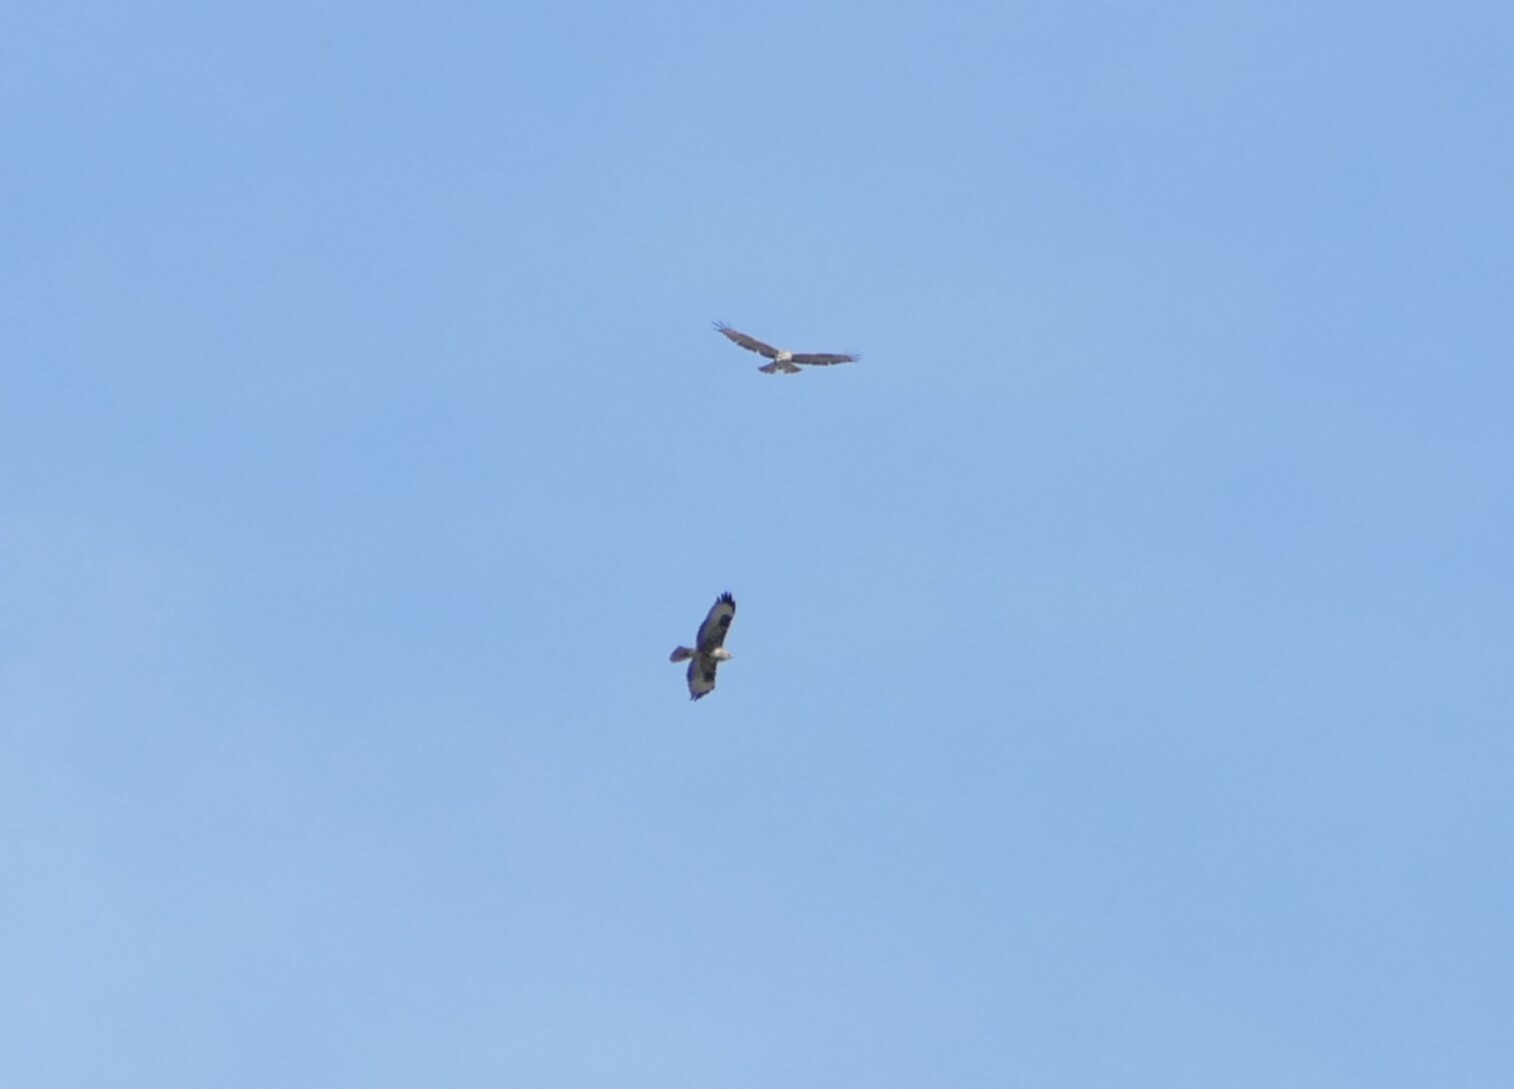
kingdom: Animalia
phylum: Chordata
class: Aves
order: Accipitriformes
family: Accipitridae
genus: Buteo
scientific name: Buteo buteo
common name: Common buzzard
